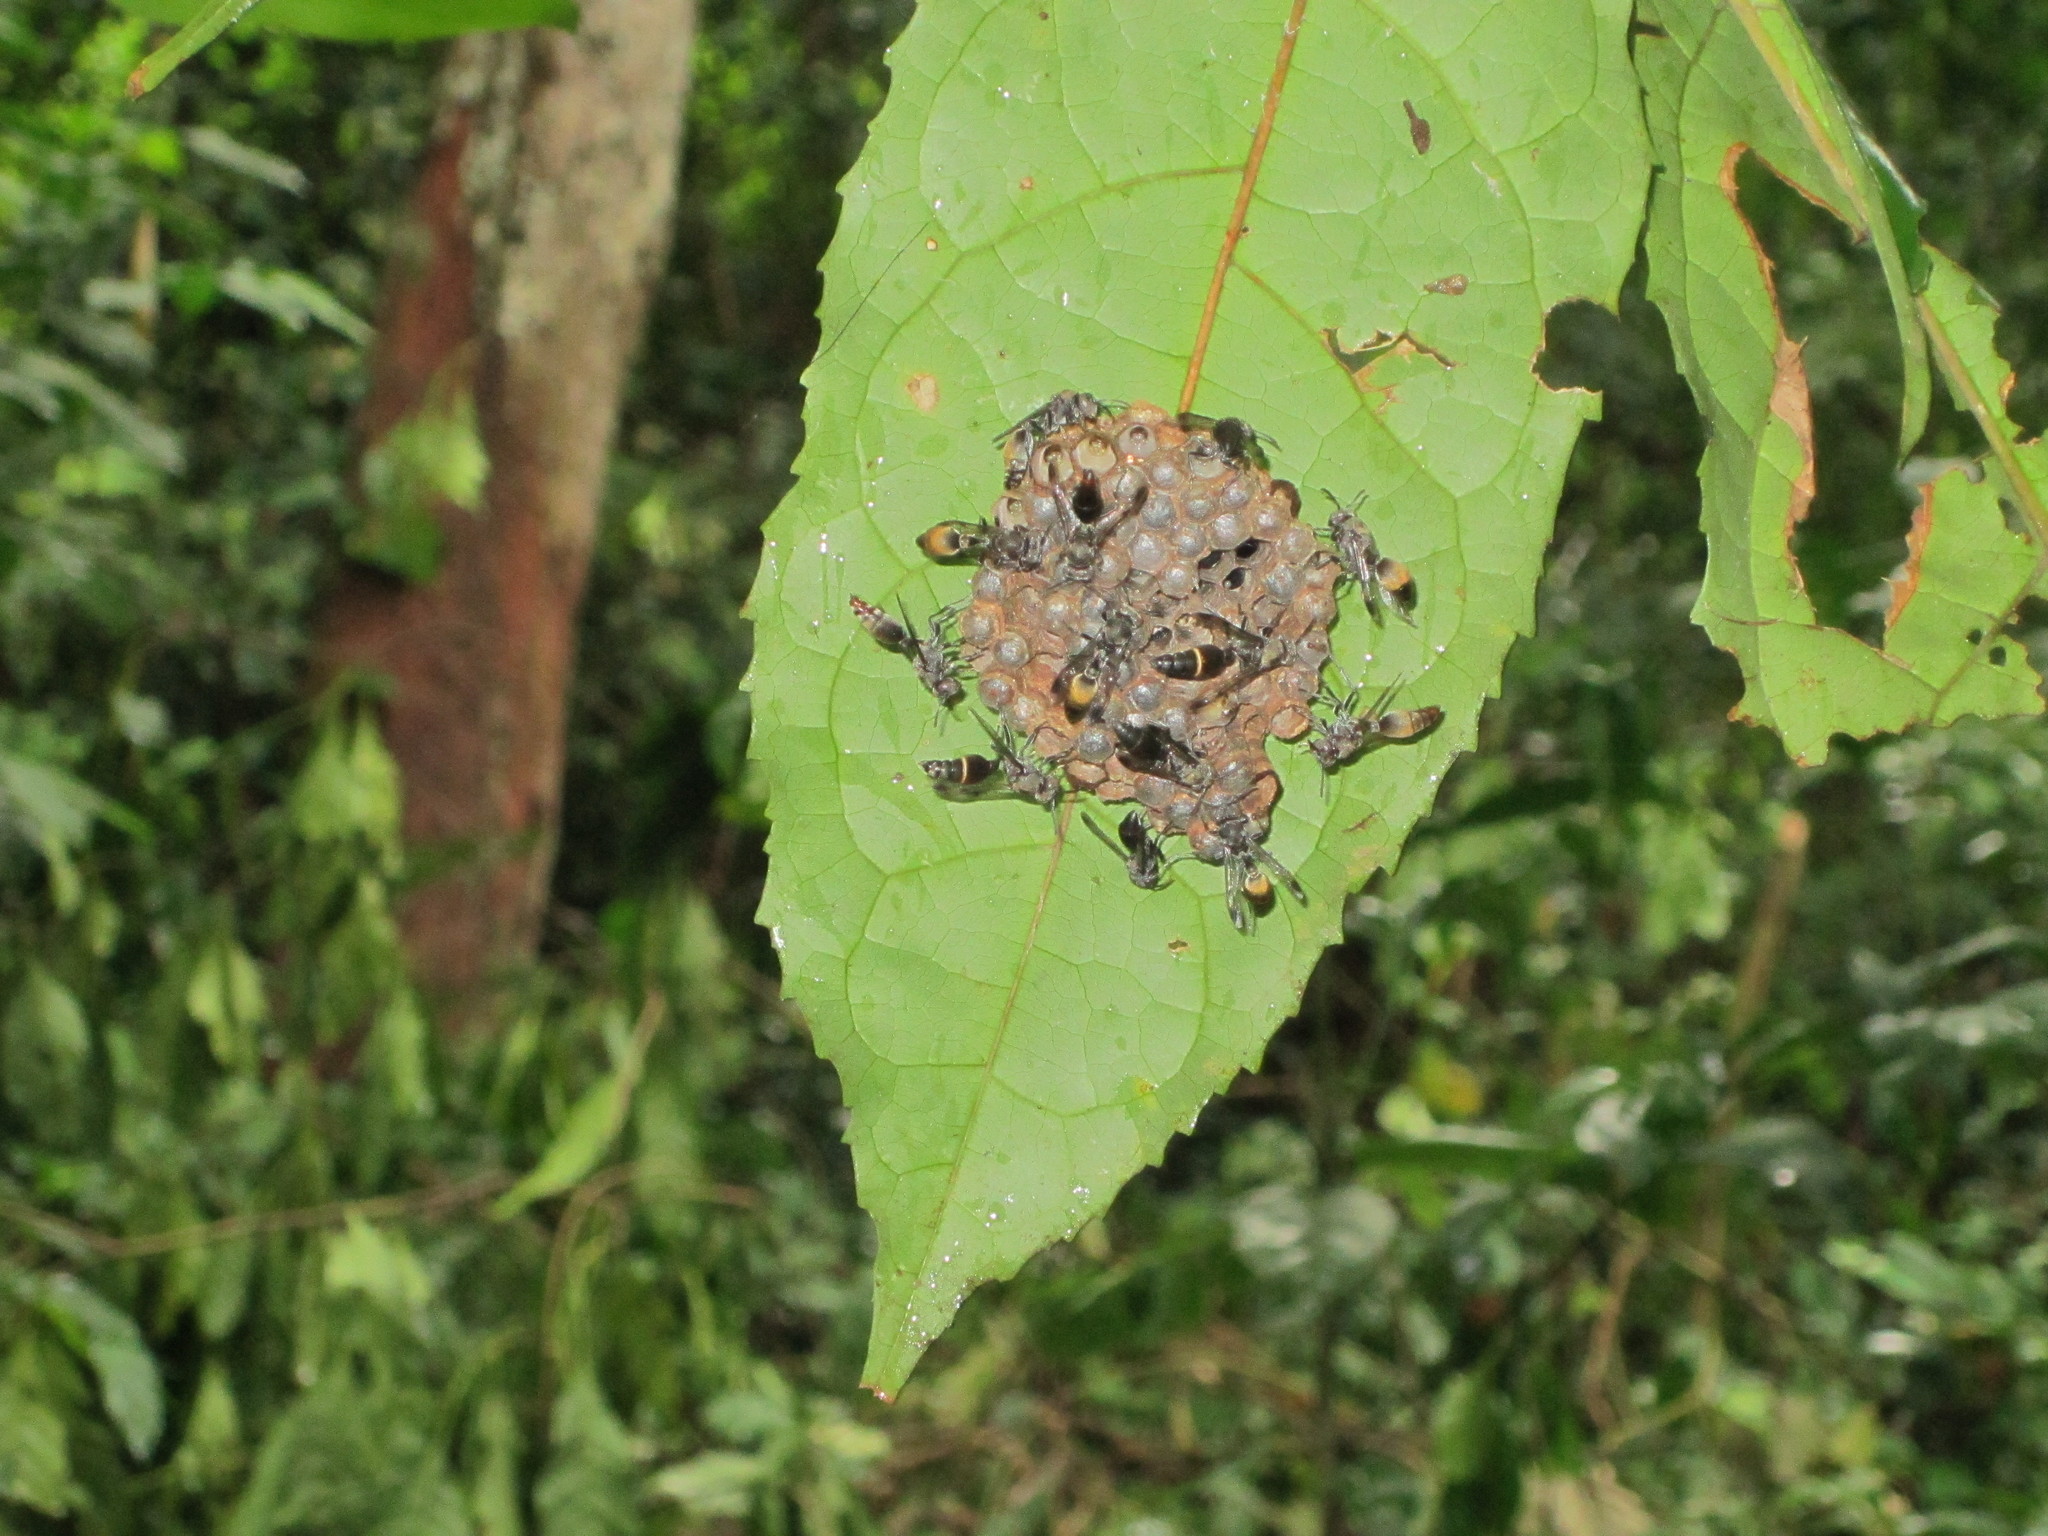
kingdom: Animalia
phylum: Arthropoda
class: Insecta
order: Hymenoptera
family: Vespidae
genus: Ropalidia
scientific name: Ropalidia guttatipennis
